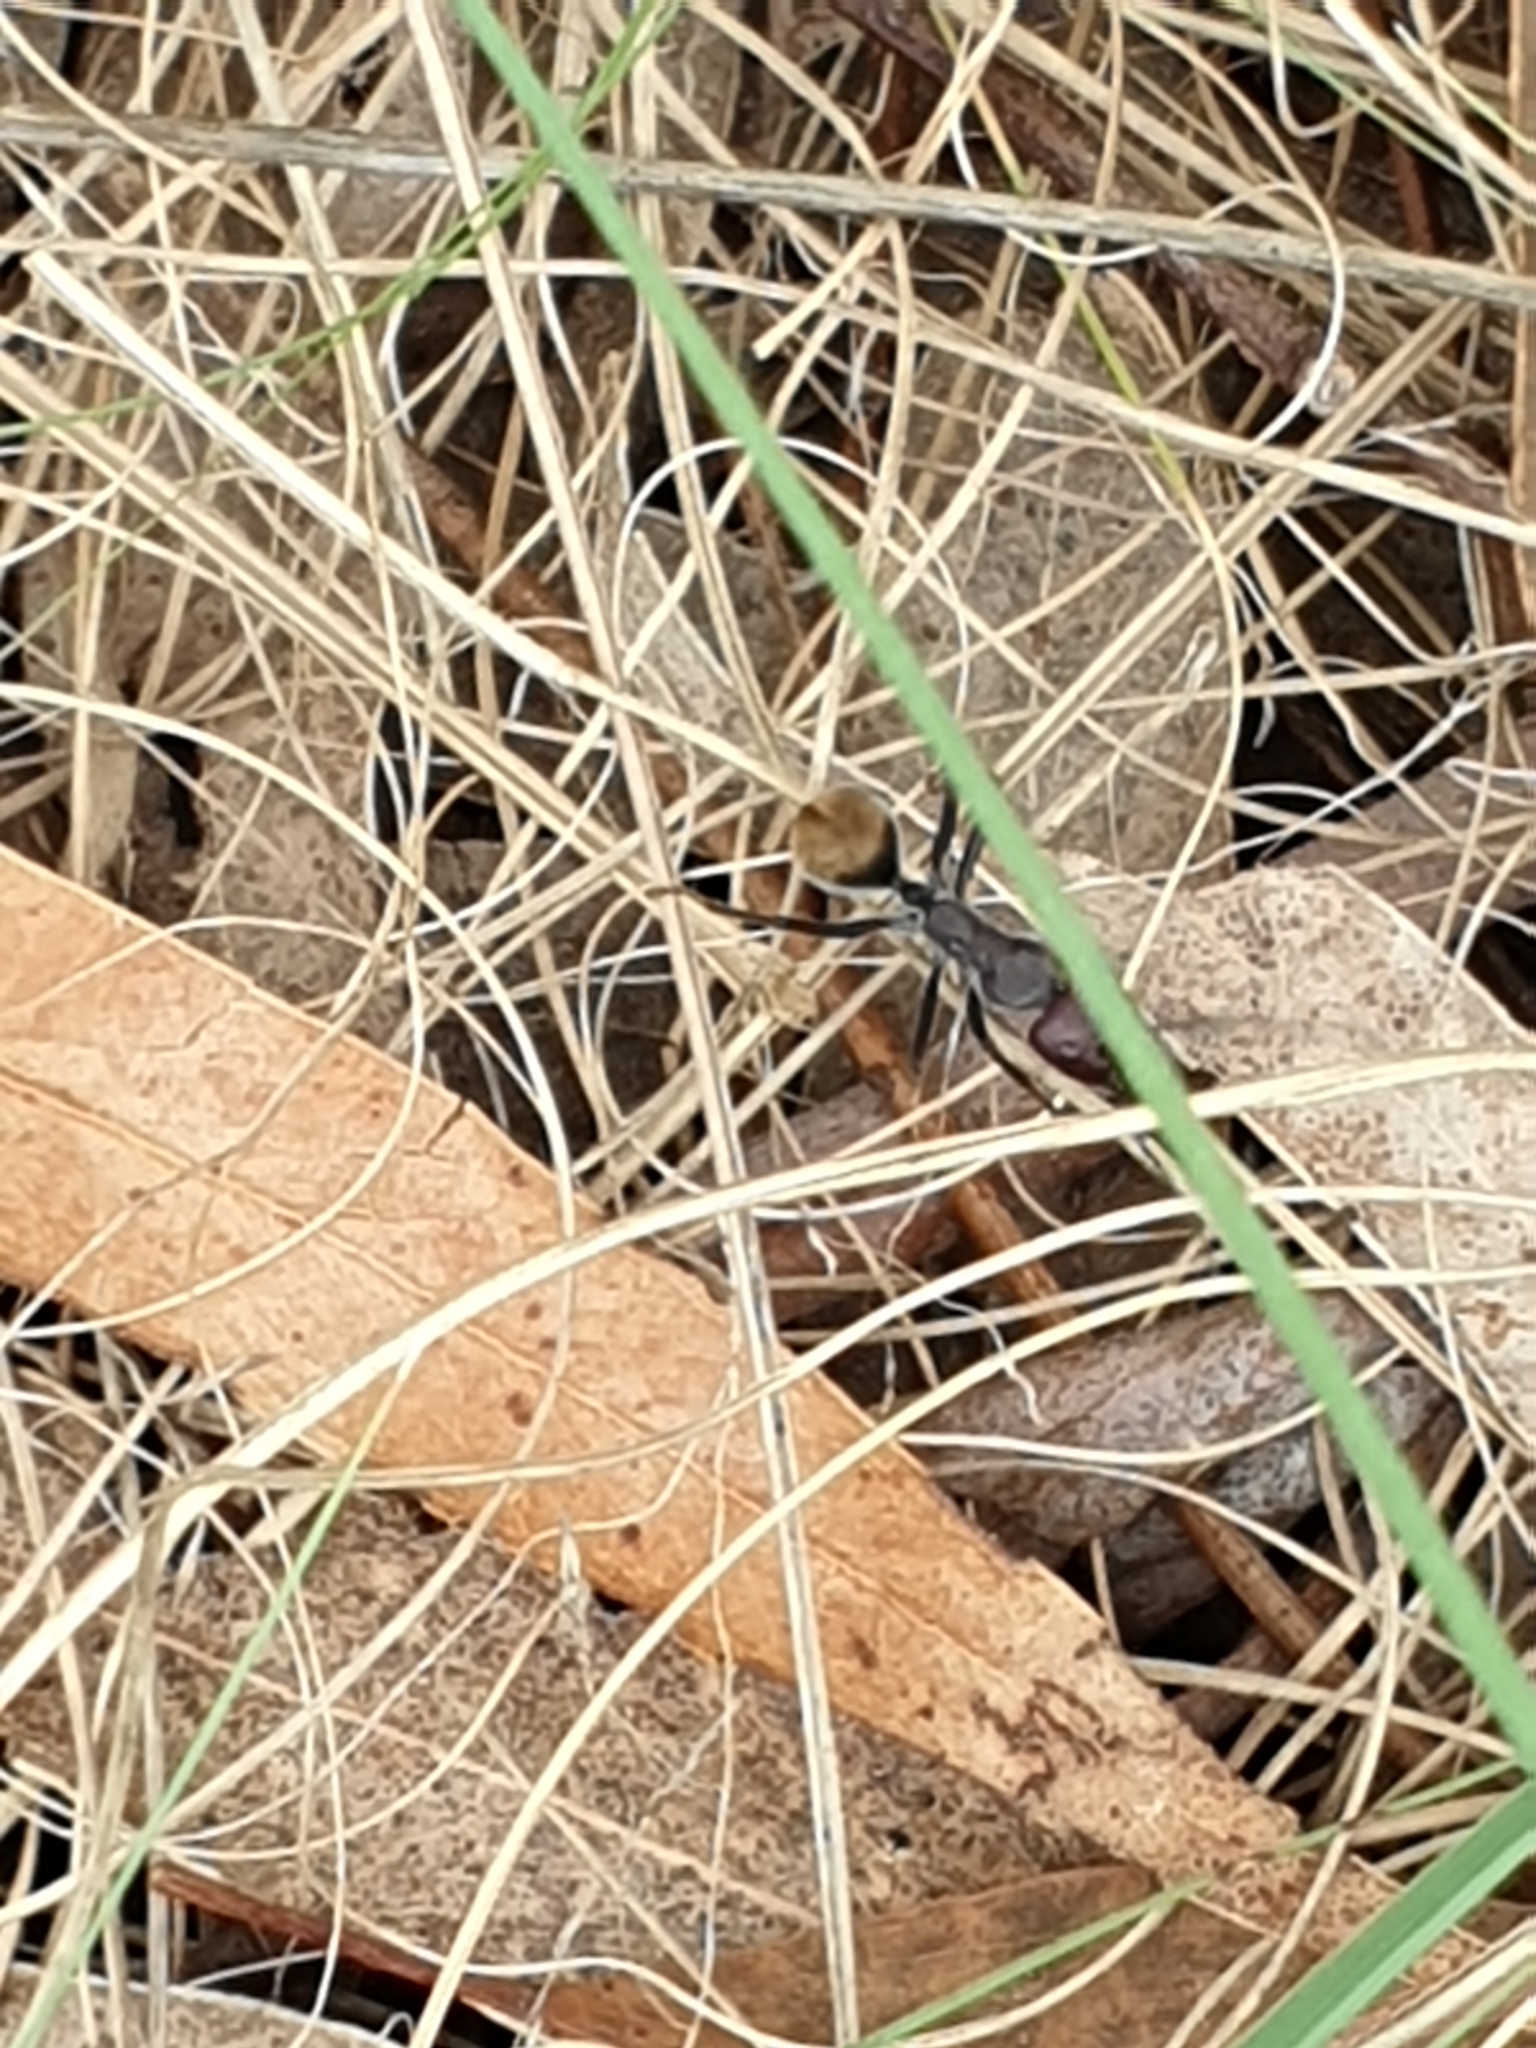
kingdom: Animalia
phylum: Arthropoda
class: Insecta
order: Hymenoptera
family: Formicidae
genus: Camponotus
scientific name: Camponotus suffusus
